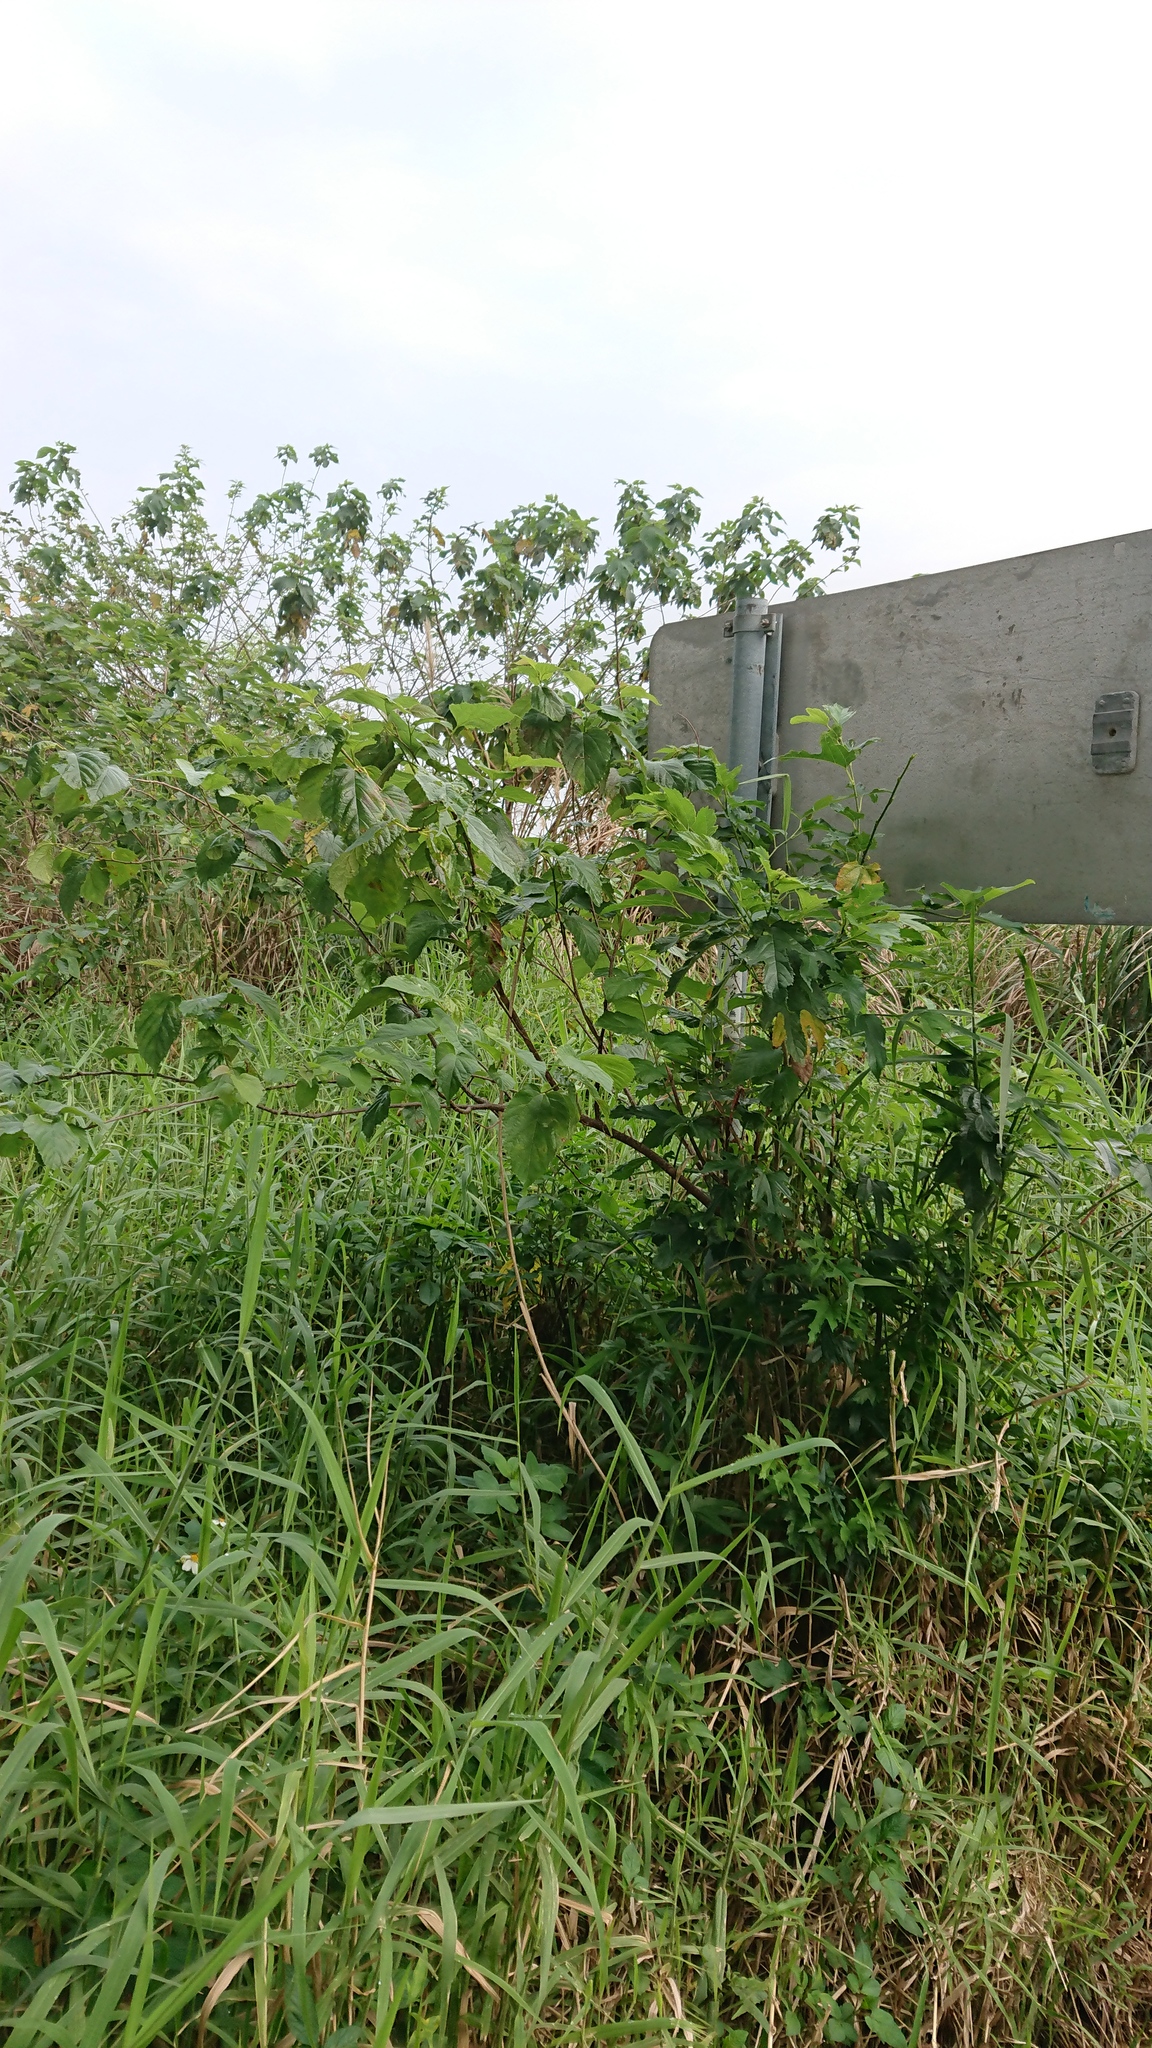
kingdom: Plantae
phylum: Tracheophyta
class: Magnoliopsida
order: Rosales
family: Moraceae
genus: Morus
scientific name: Morus indica
